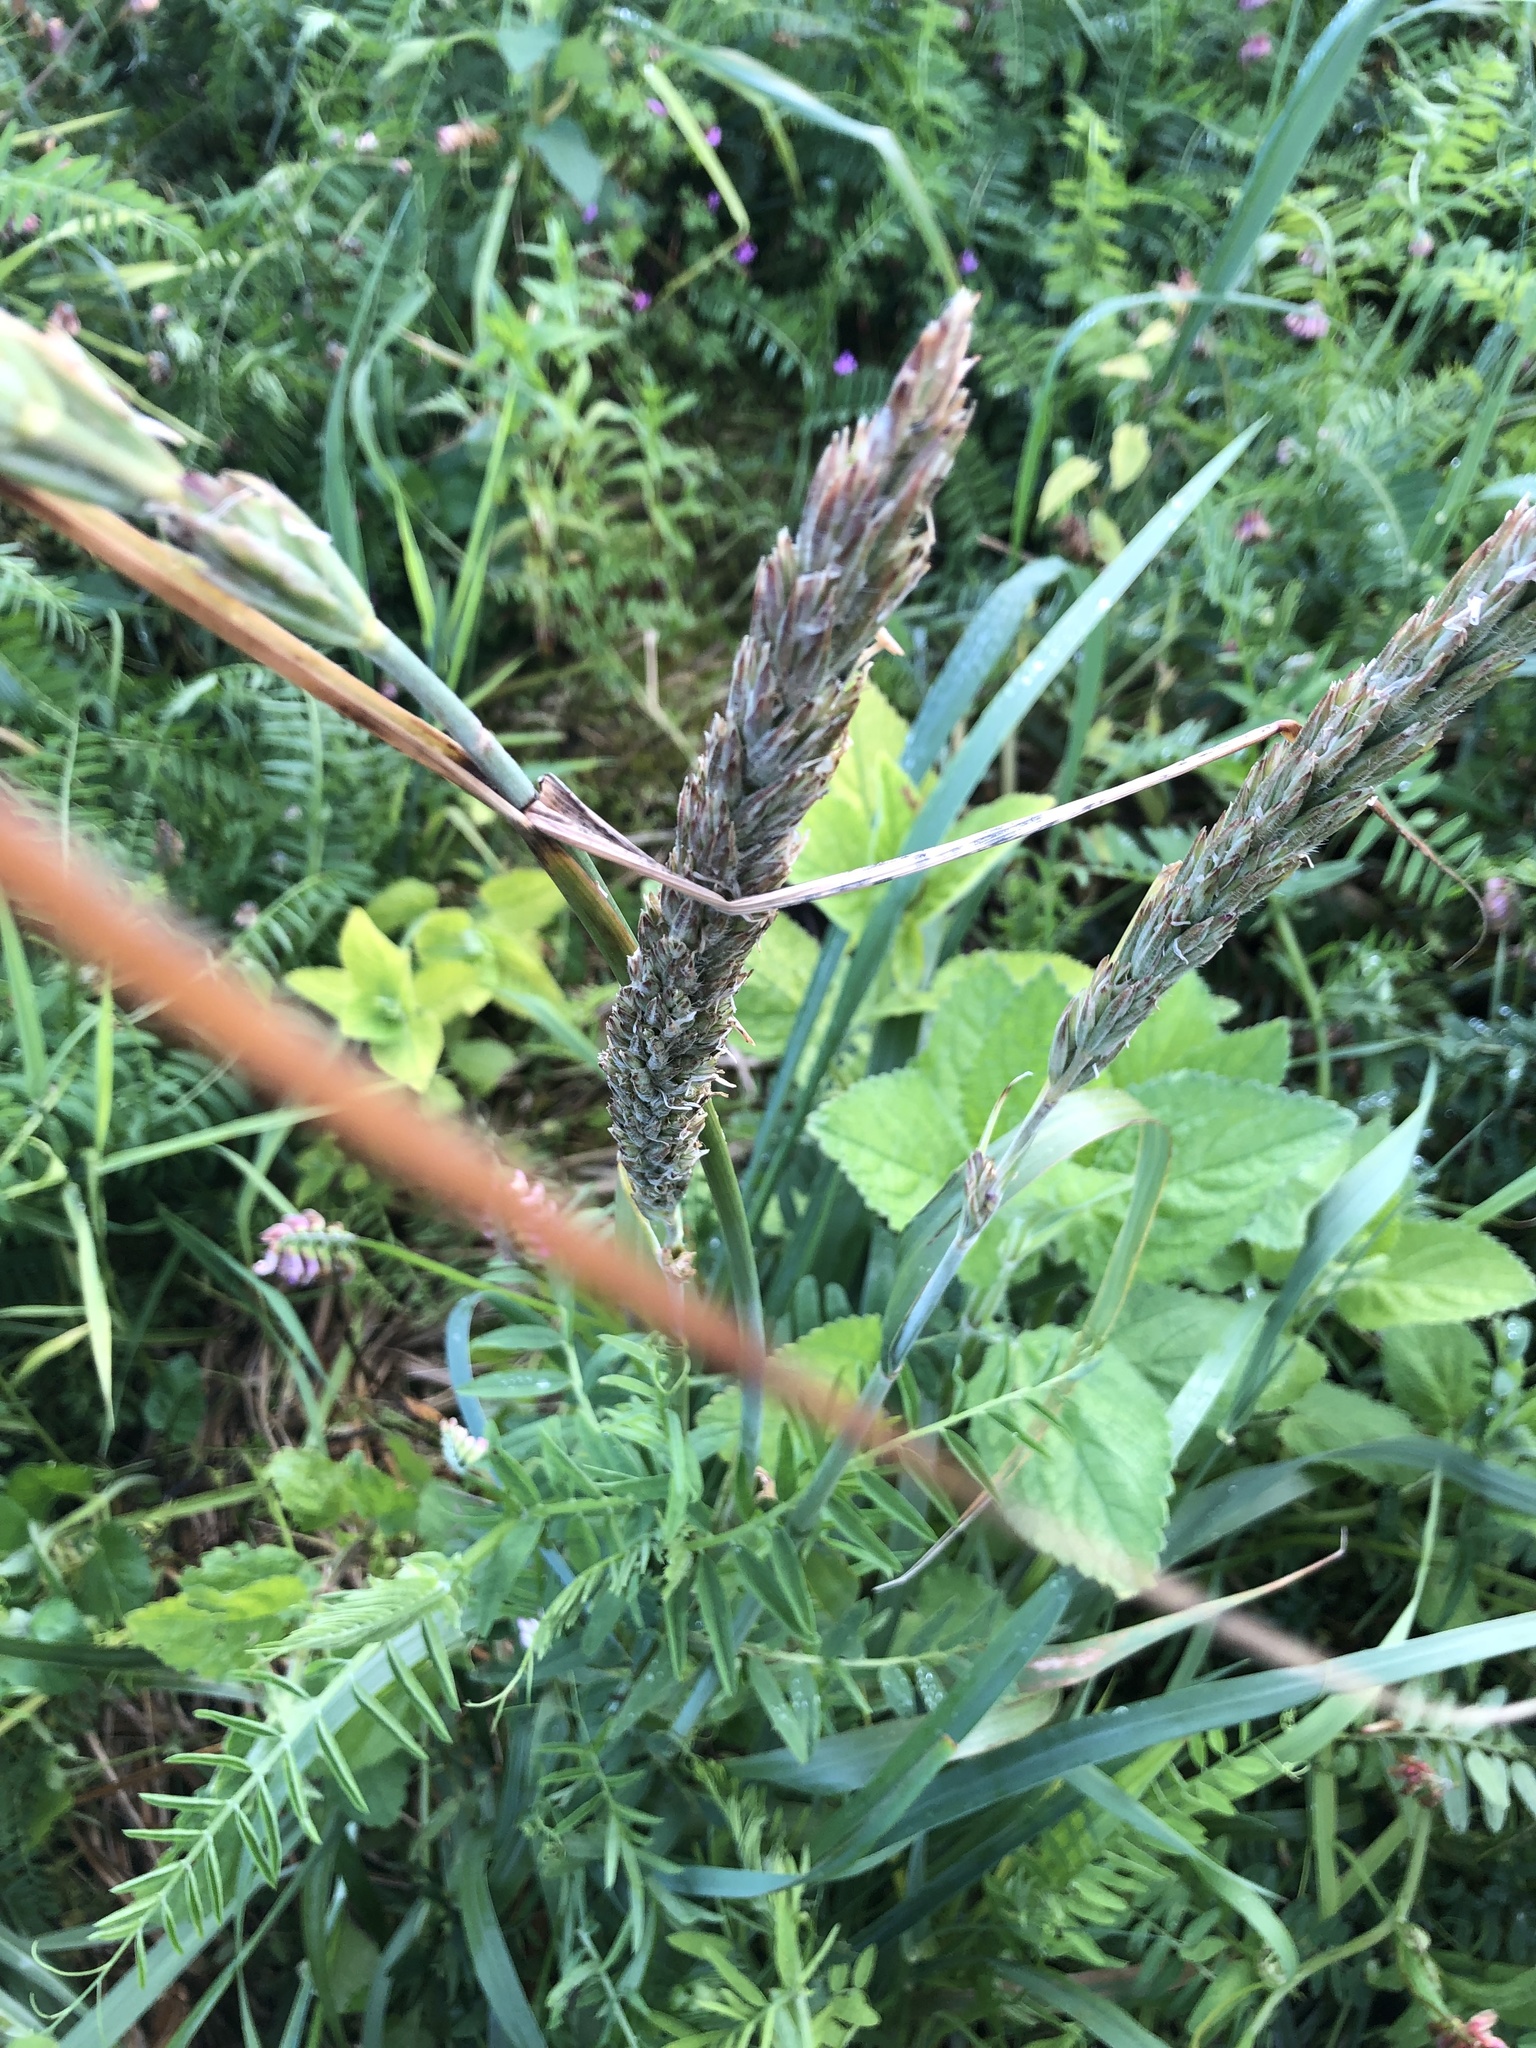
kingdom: Plantae
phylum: Tracheophyta
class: Liliopsida
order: Poales
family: Poaceae
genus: Leymus
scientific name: Leymus mollis
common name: American dune grass
